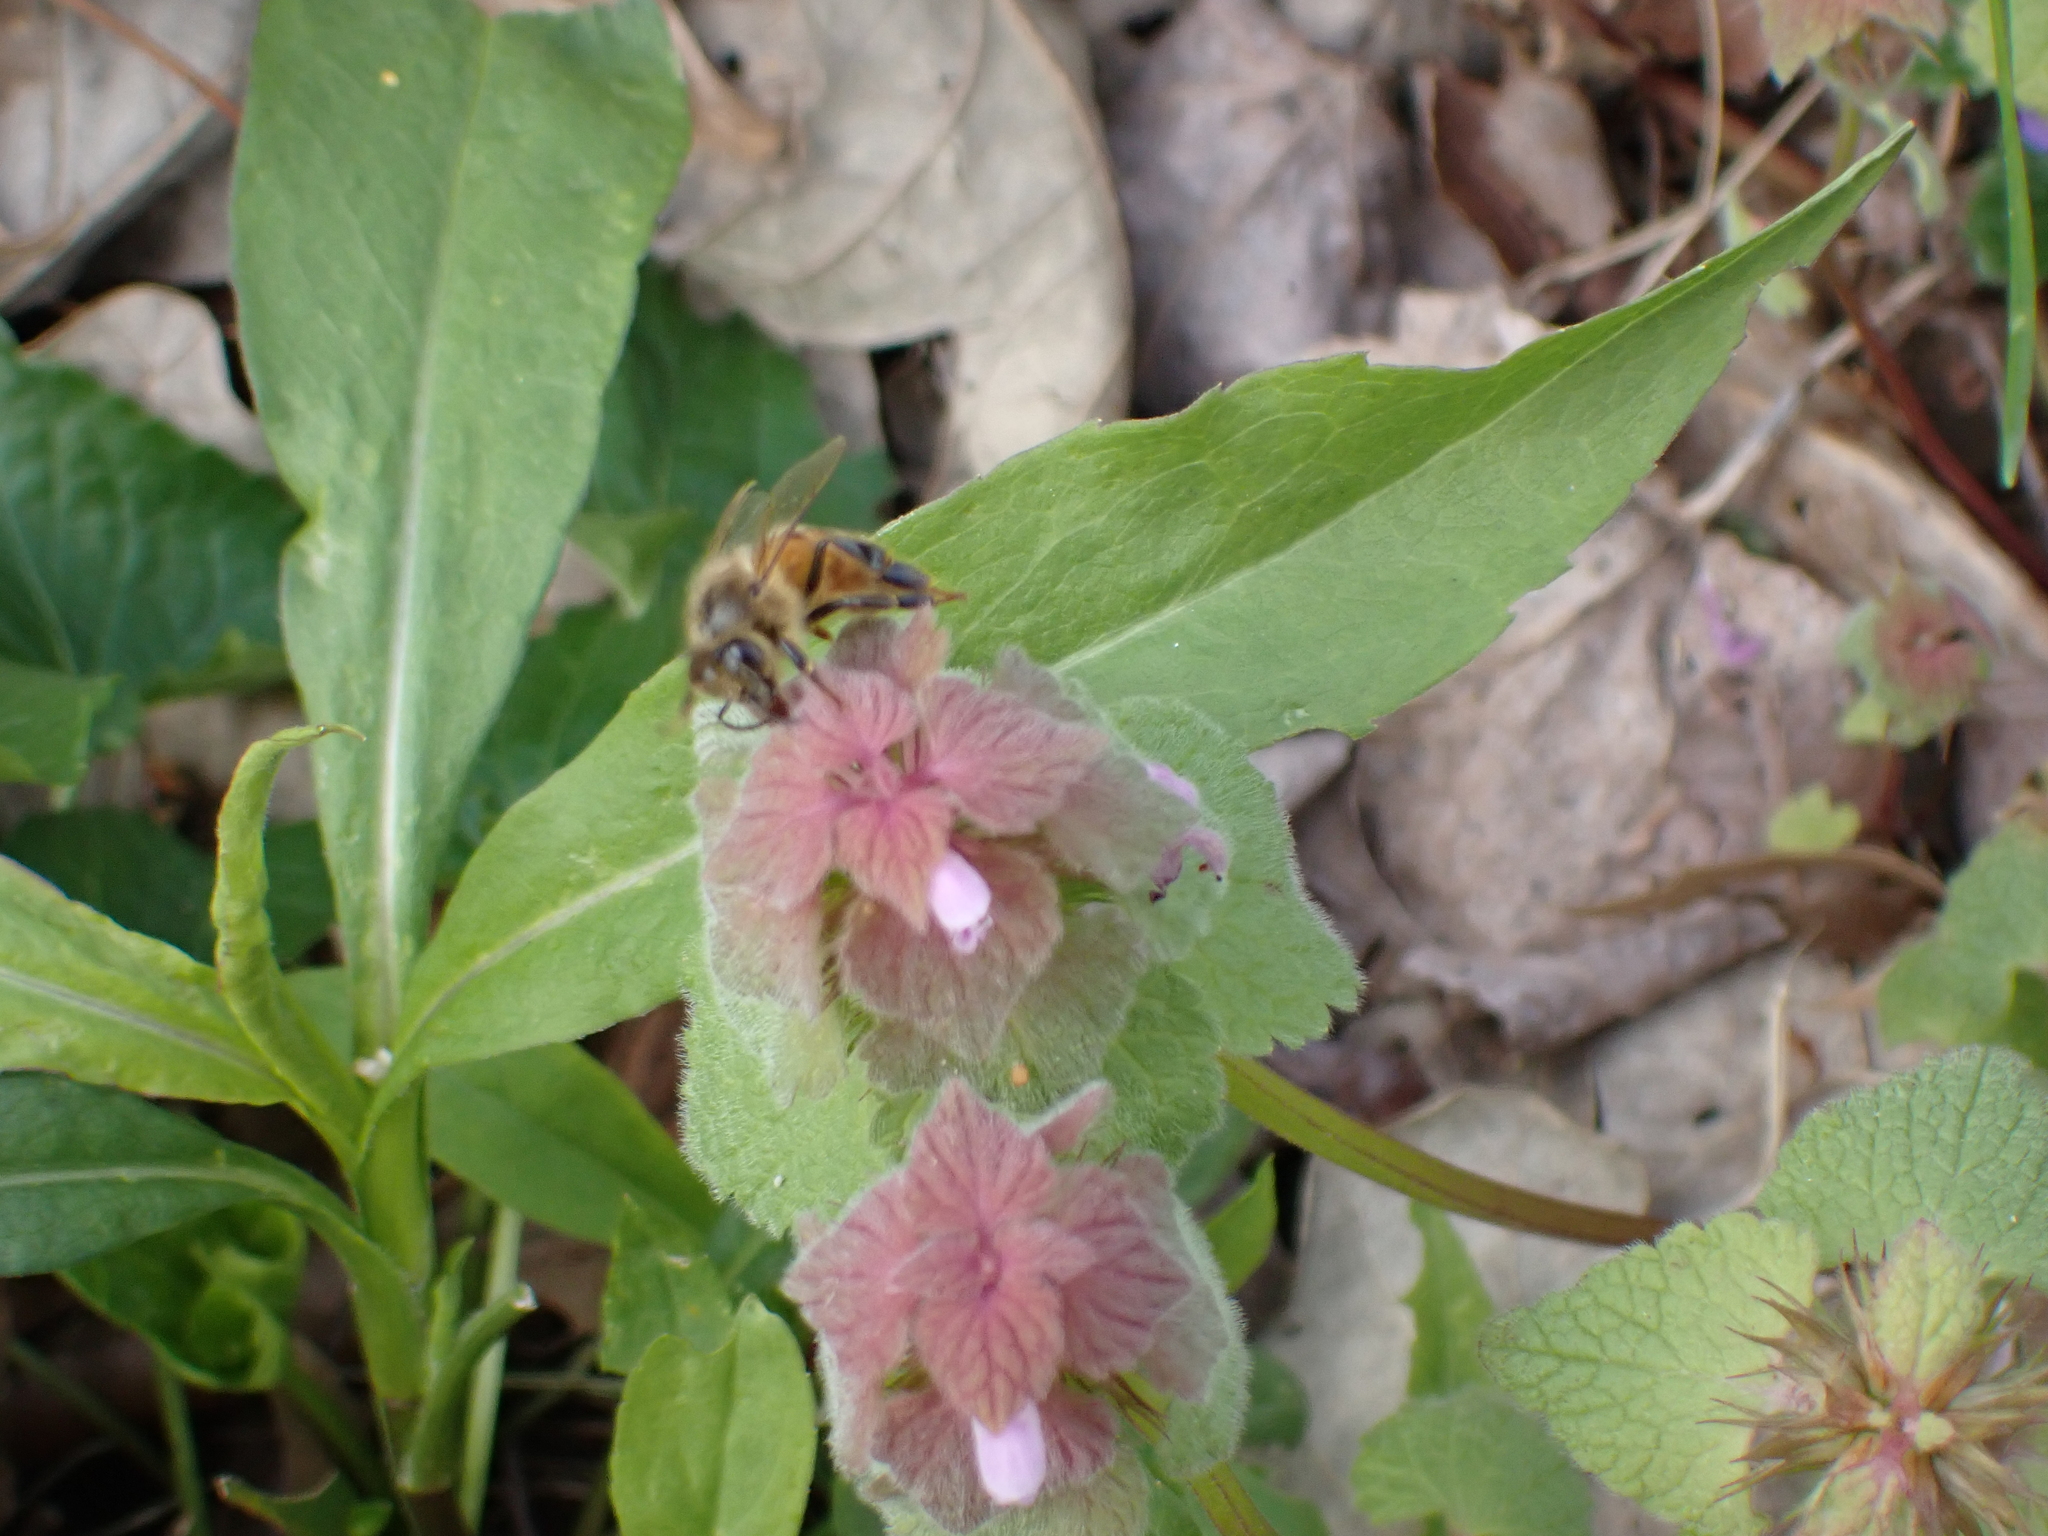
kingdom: Animalia
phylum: Arthropoda
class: Insecta
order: Hymenoptera
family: Apidae
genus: Apis
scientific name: Apis mellifera
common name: Honey bee
